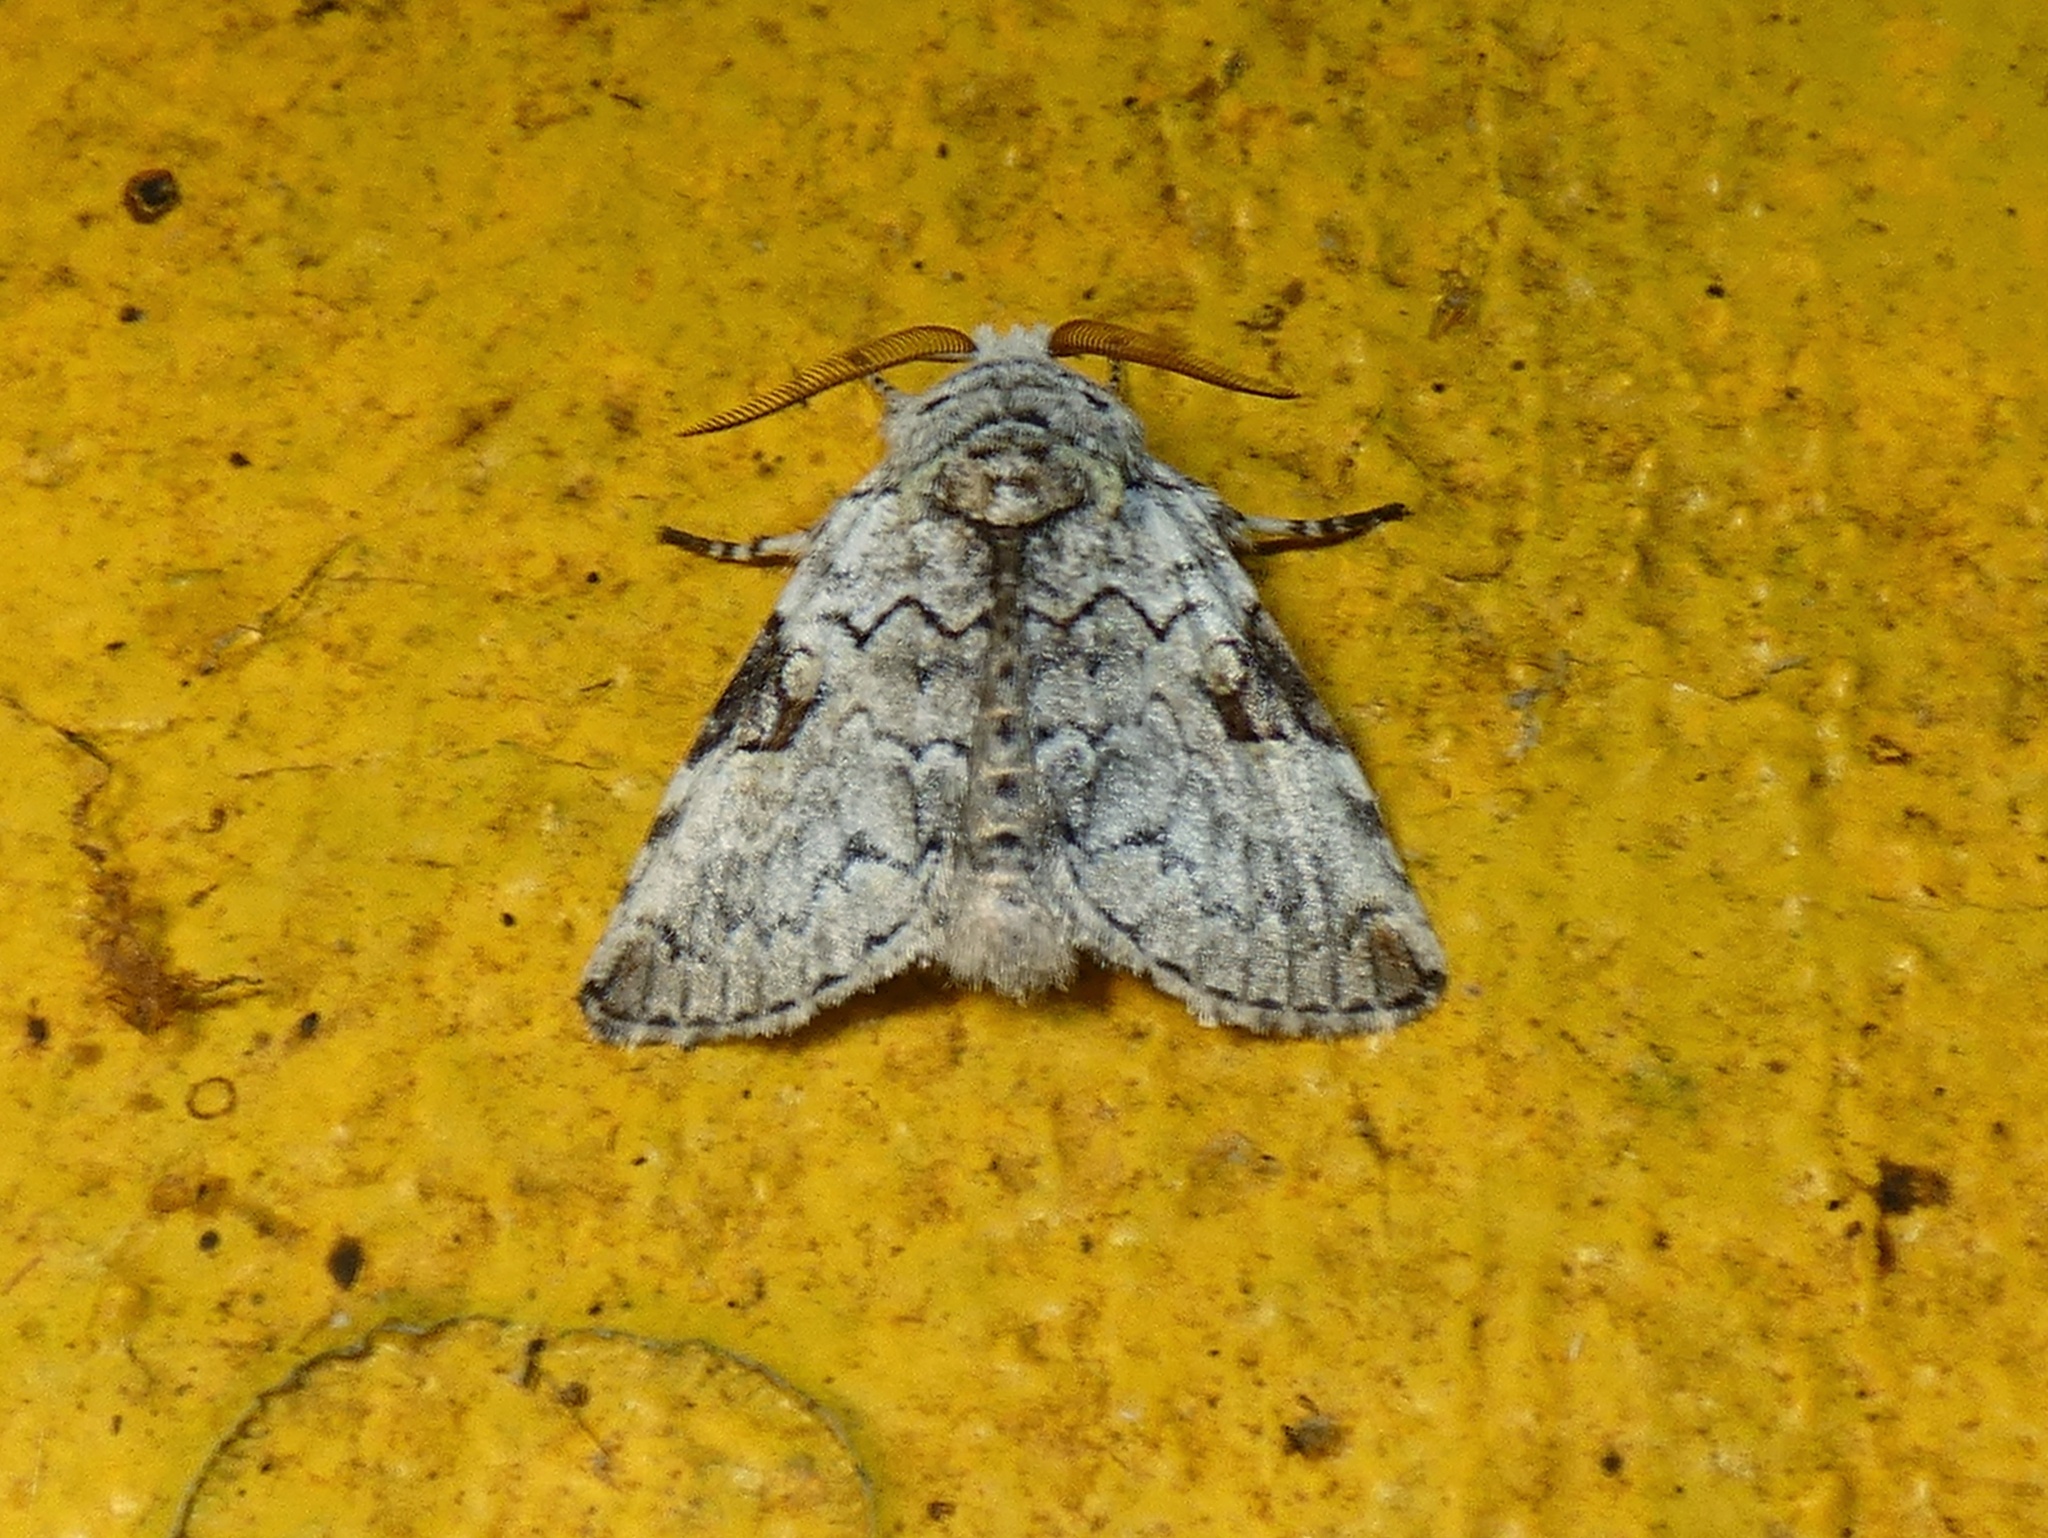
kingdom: Animalia
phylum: Arthropoda
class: Insecta
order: Lepidoptera
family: Noctuidae
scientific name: Noctuidae
